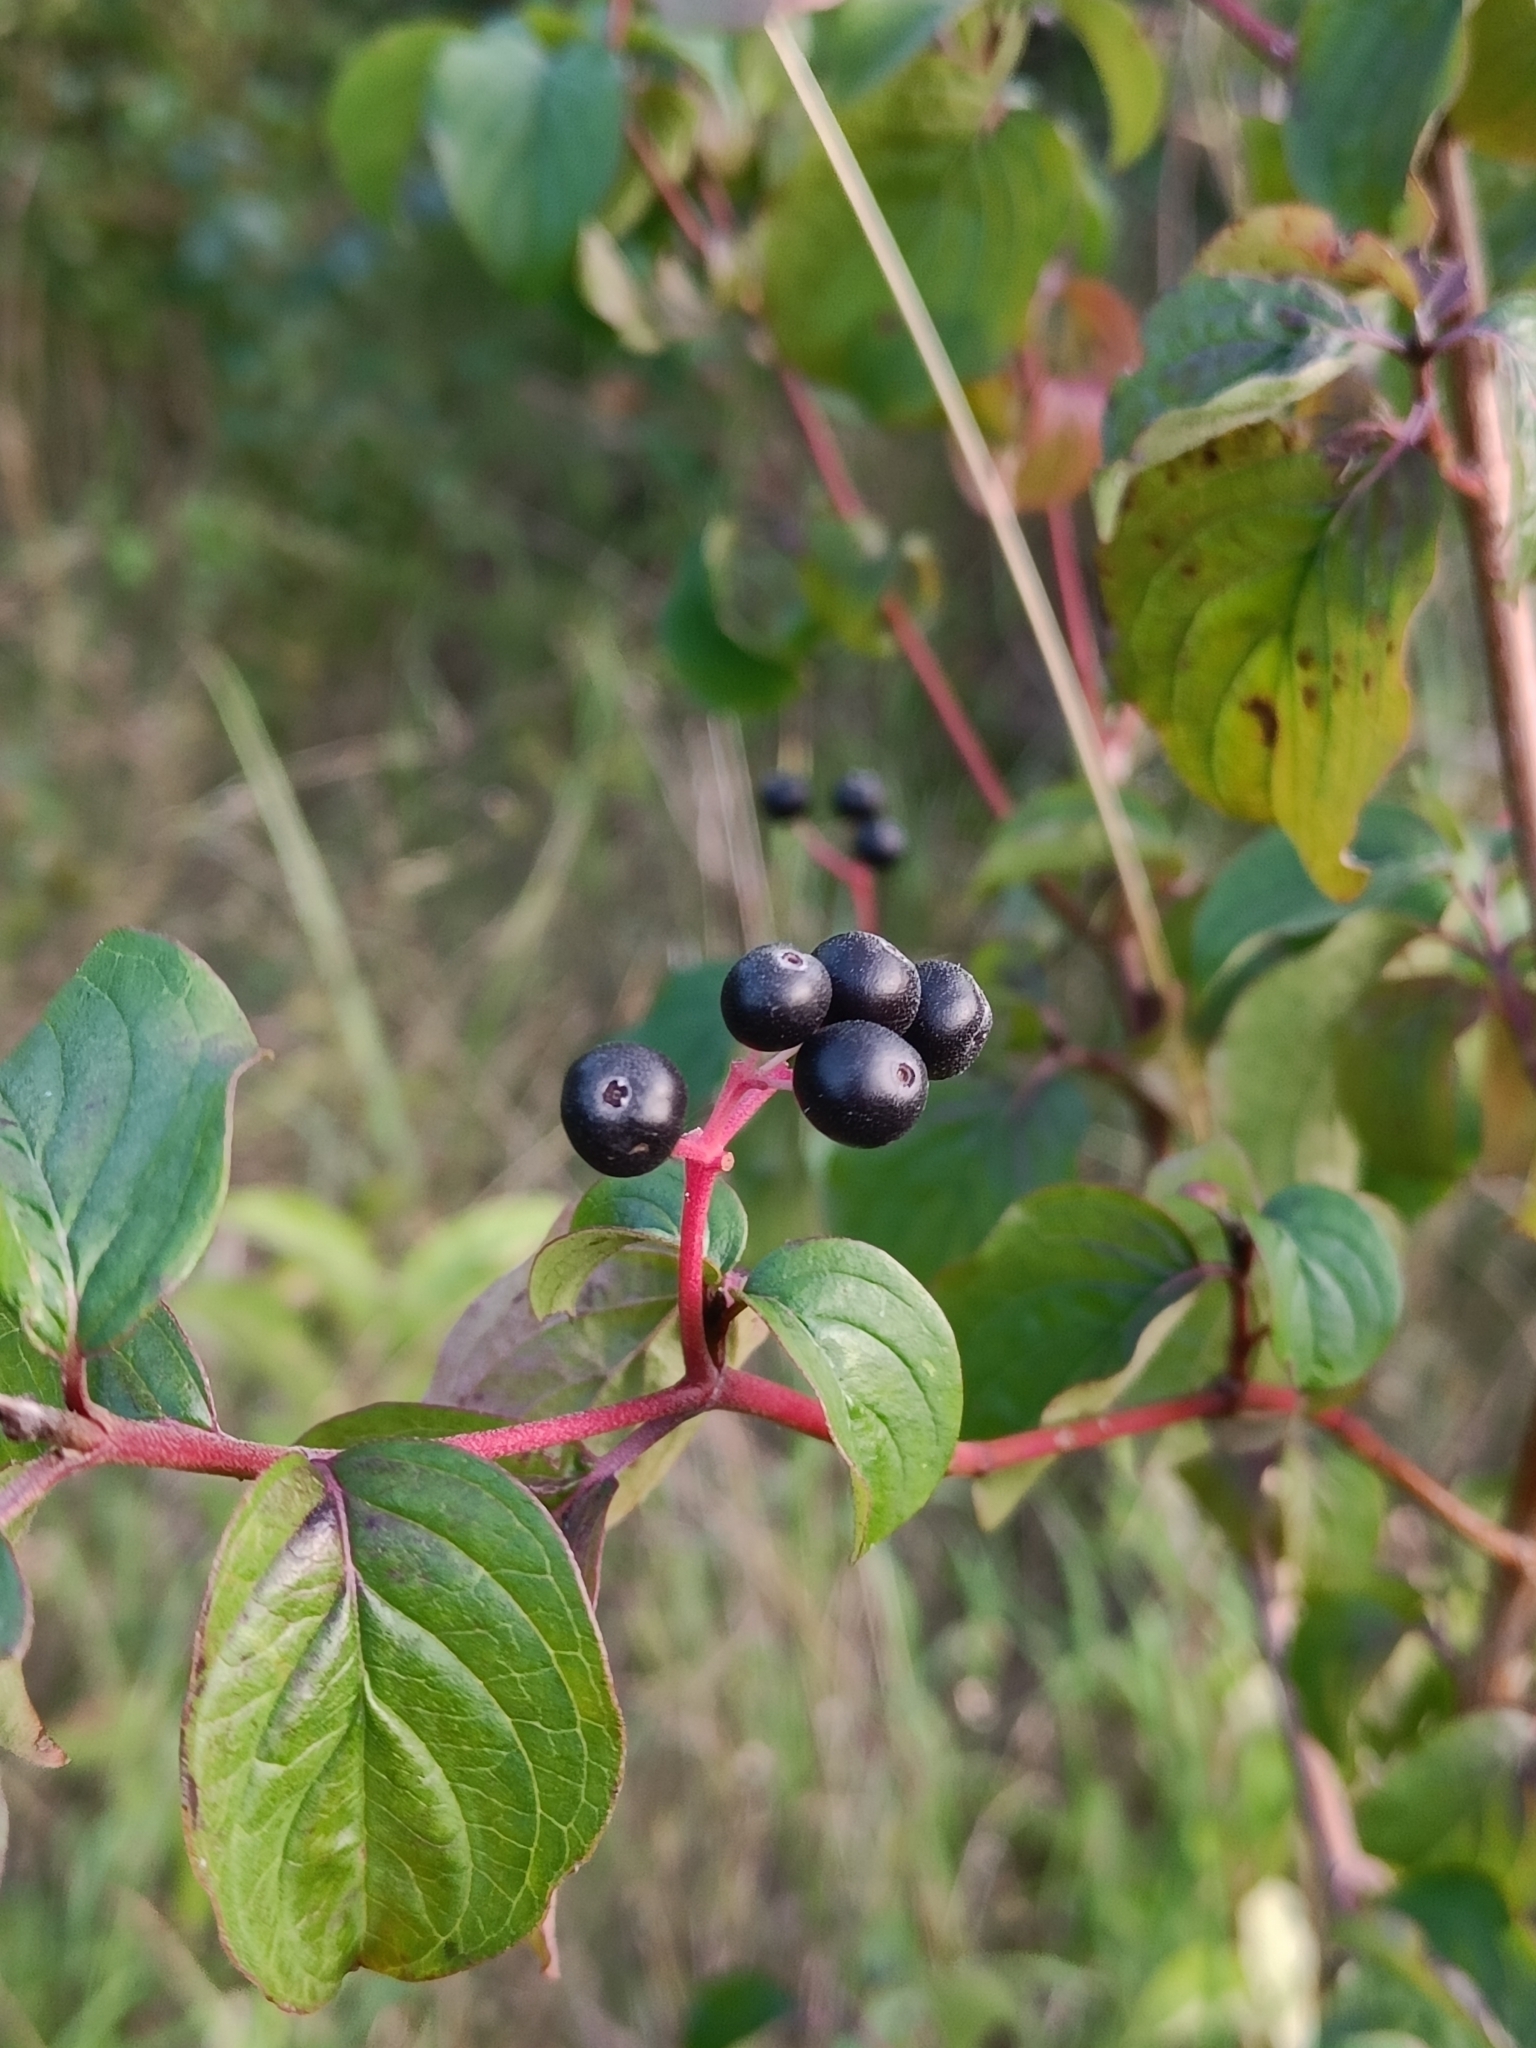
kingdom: Plantae
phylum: Tracheophyta
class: Magnoliopsida
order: Cornales
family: Cornaceae
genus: Cornus
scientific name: Cornus sanguinea
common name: Dogwood
